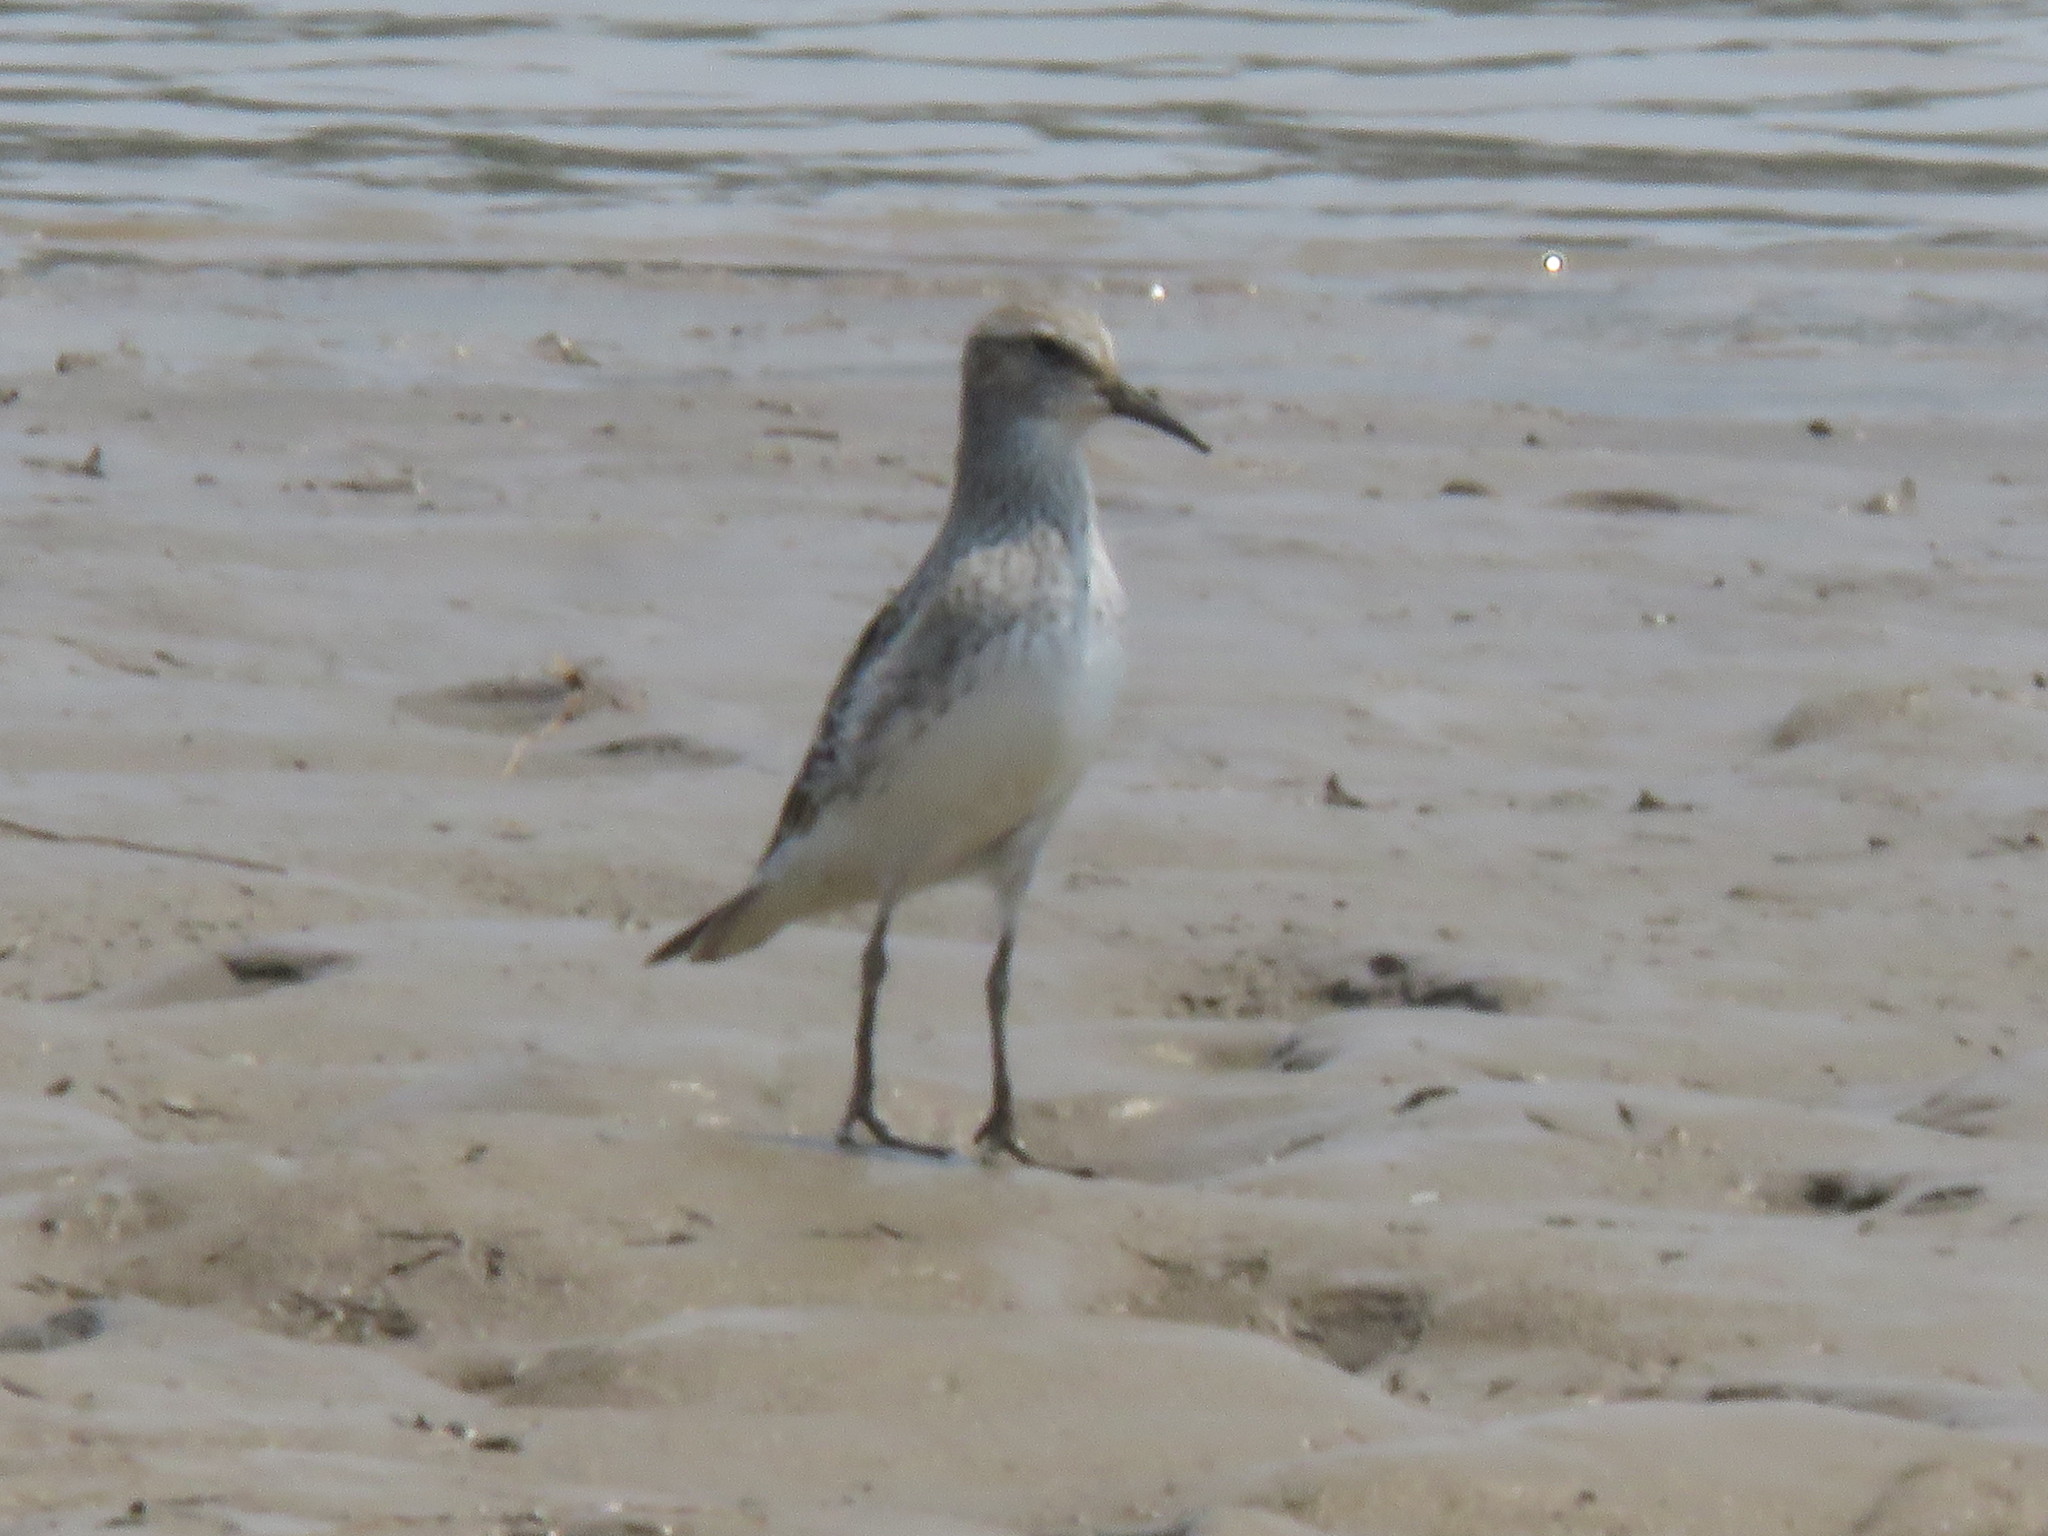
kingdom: Animalia
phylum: Chordata
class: Aves
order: Charadriiformes
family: Scolopacidae
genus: Calidris
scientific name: Calidris fuscicollis
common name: White-rumped sandpiper
